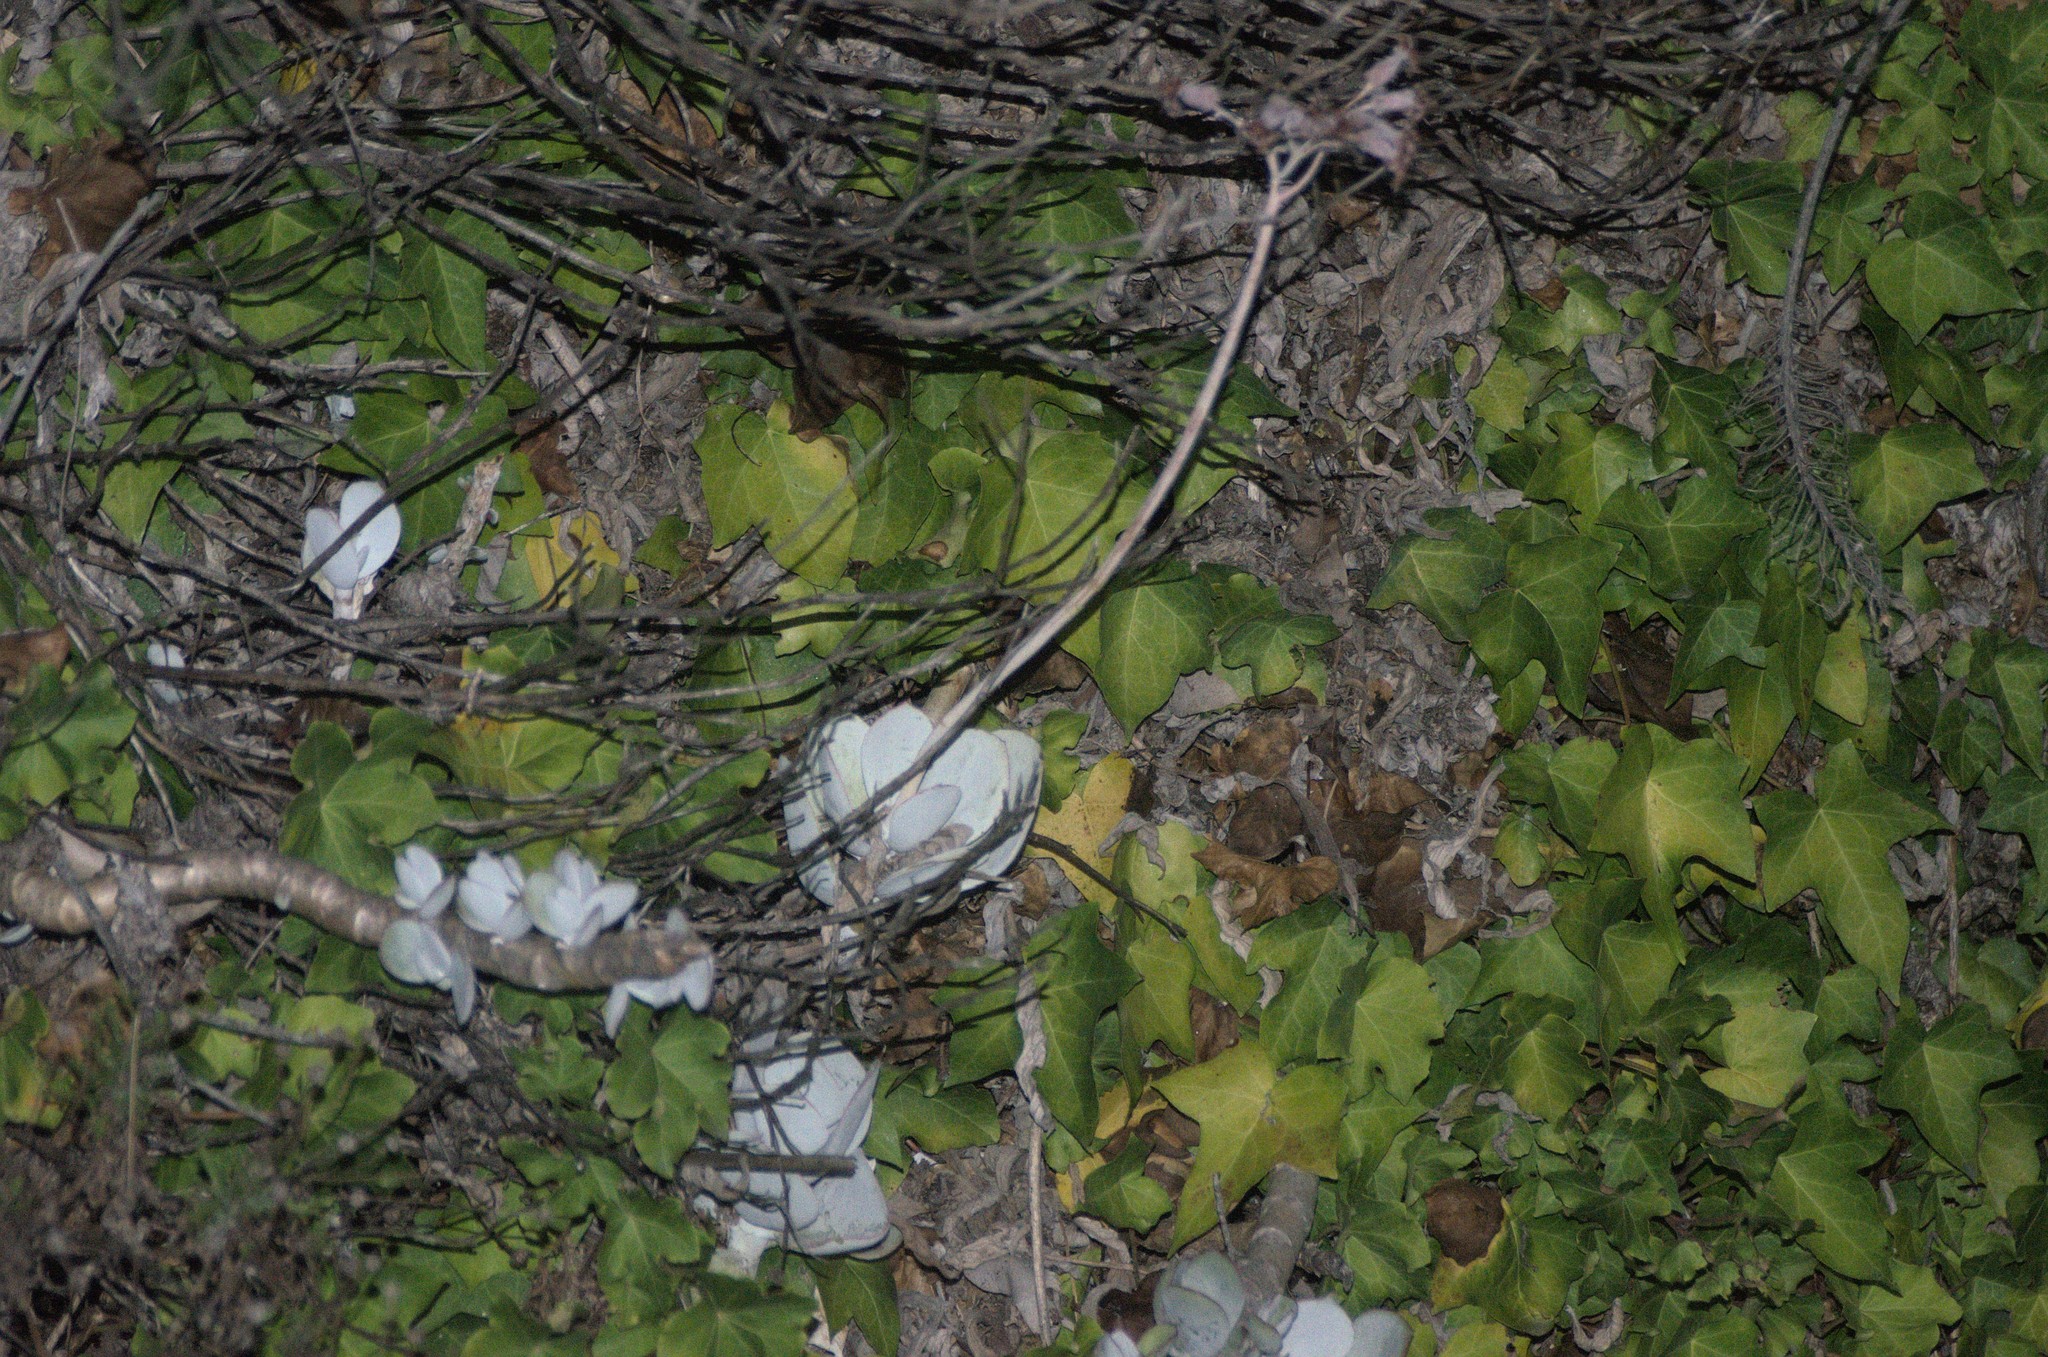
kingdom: Plantae
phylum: Tracheophyta
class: Magnoliopsida
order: Saxifragales
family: Crassulaceae
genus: Cotyledon
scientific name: Cotyledon orbiculata
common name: Pig's ear
